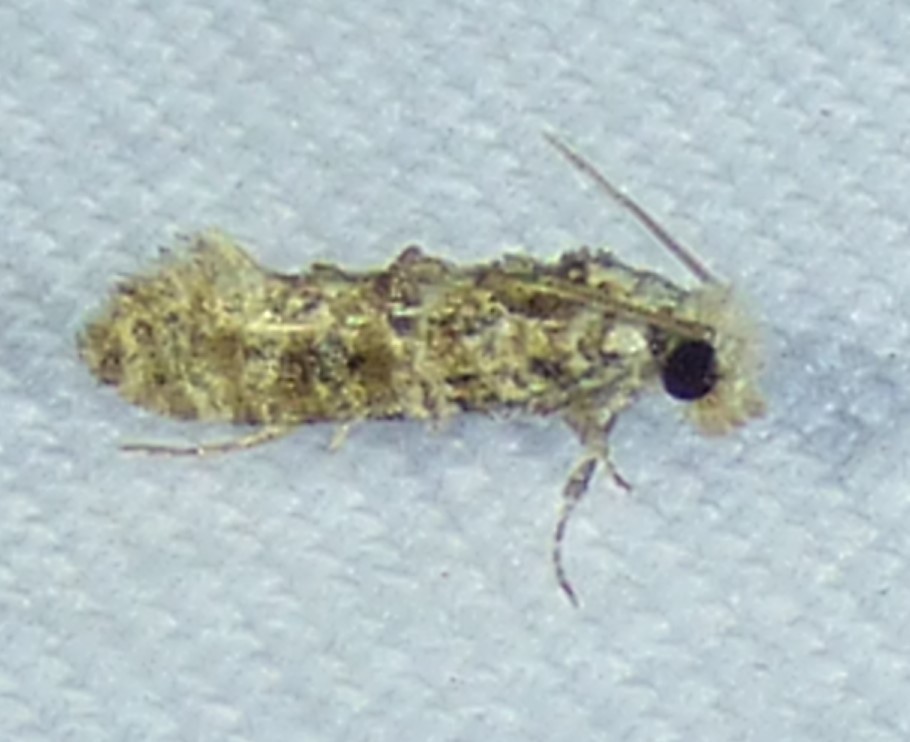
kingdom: Animalia
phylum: Arthropoda
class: Insecta
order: Lepidoptera
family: Tineidae
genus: Xylesthia
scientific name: Xylesthia pruniramiella
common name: Clemens' bark moth
